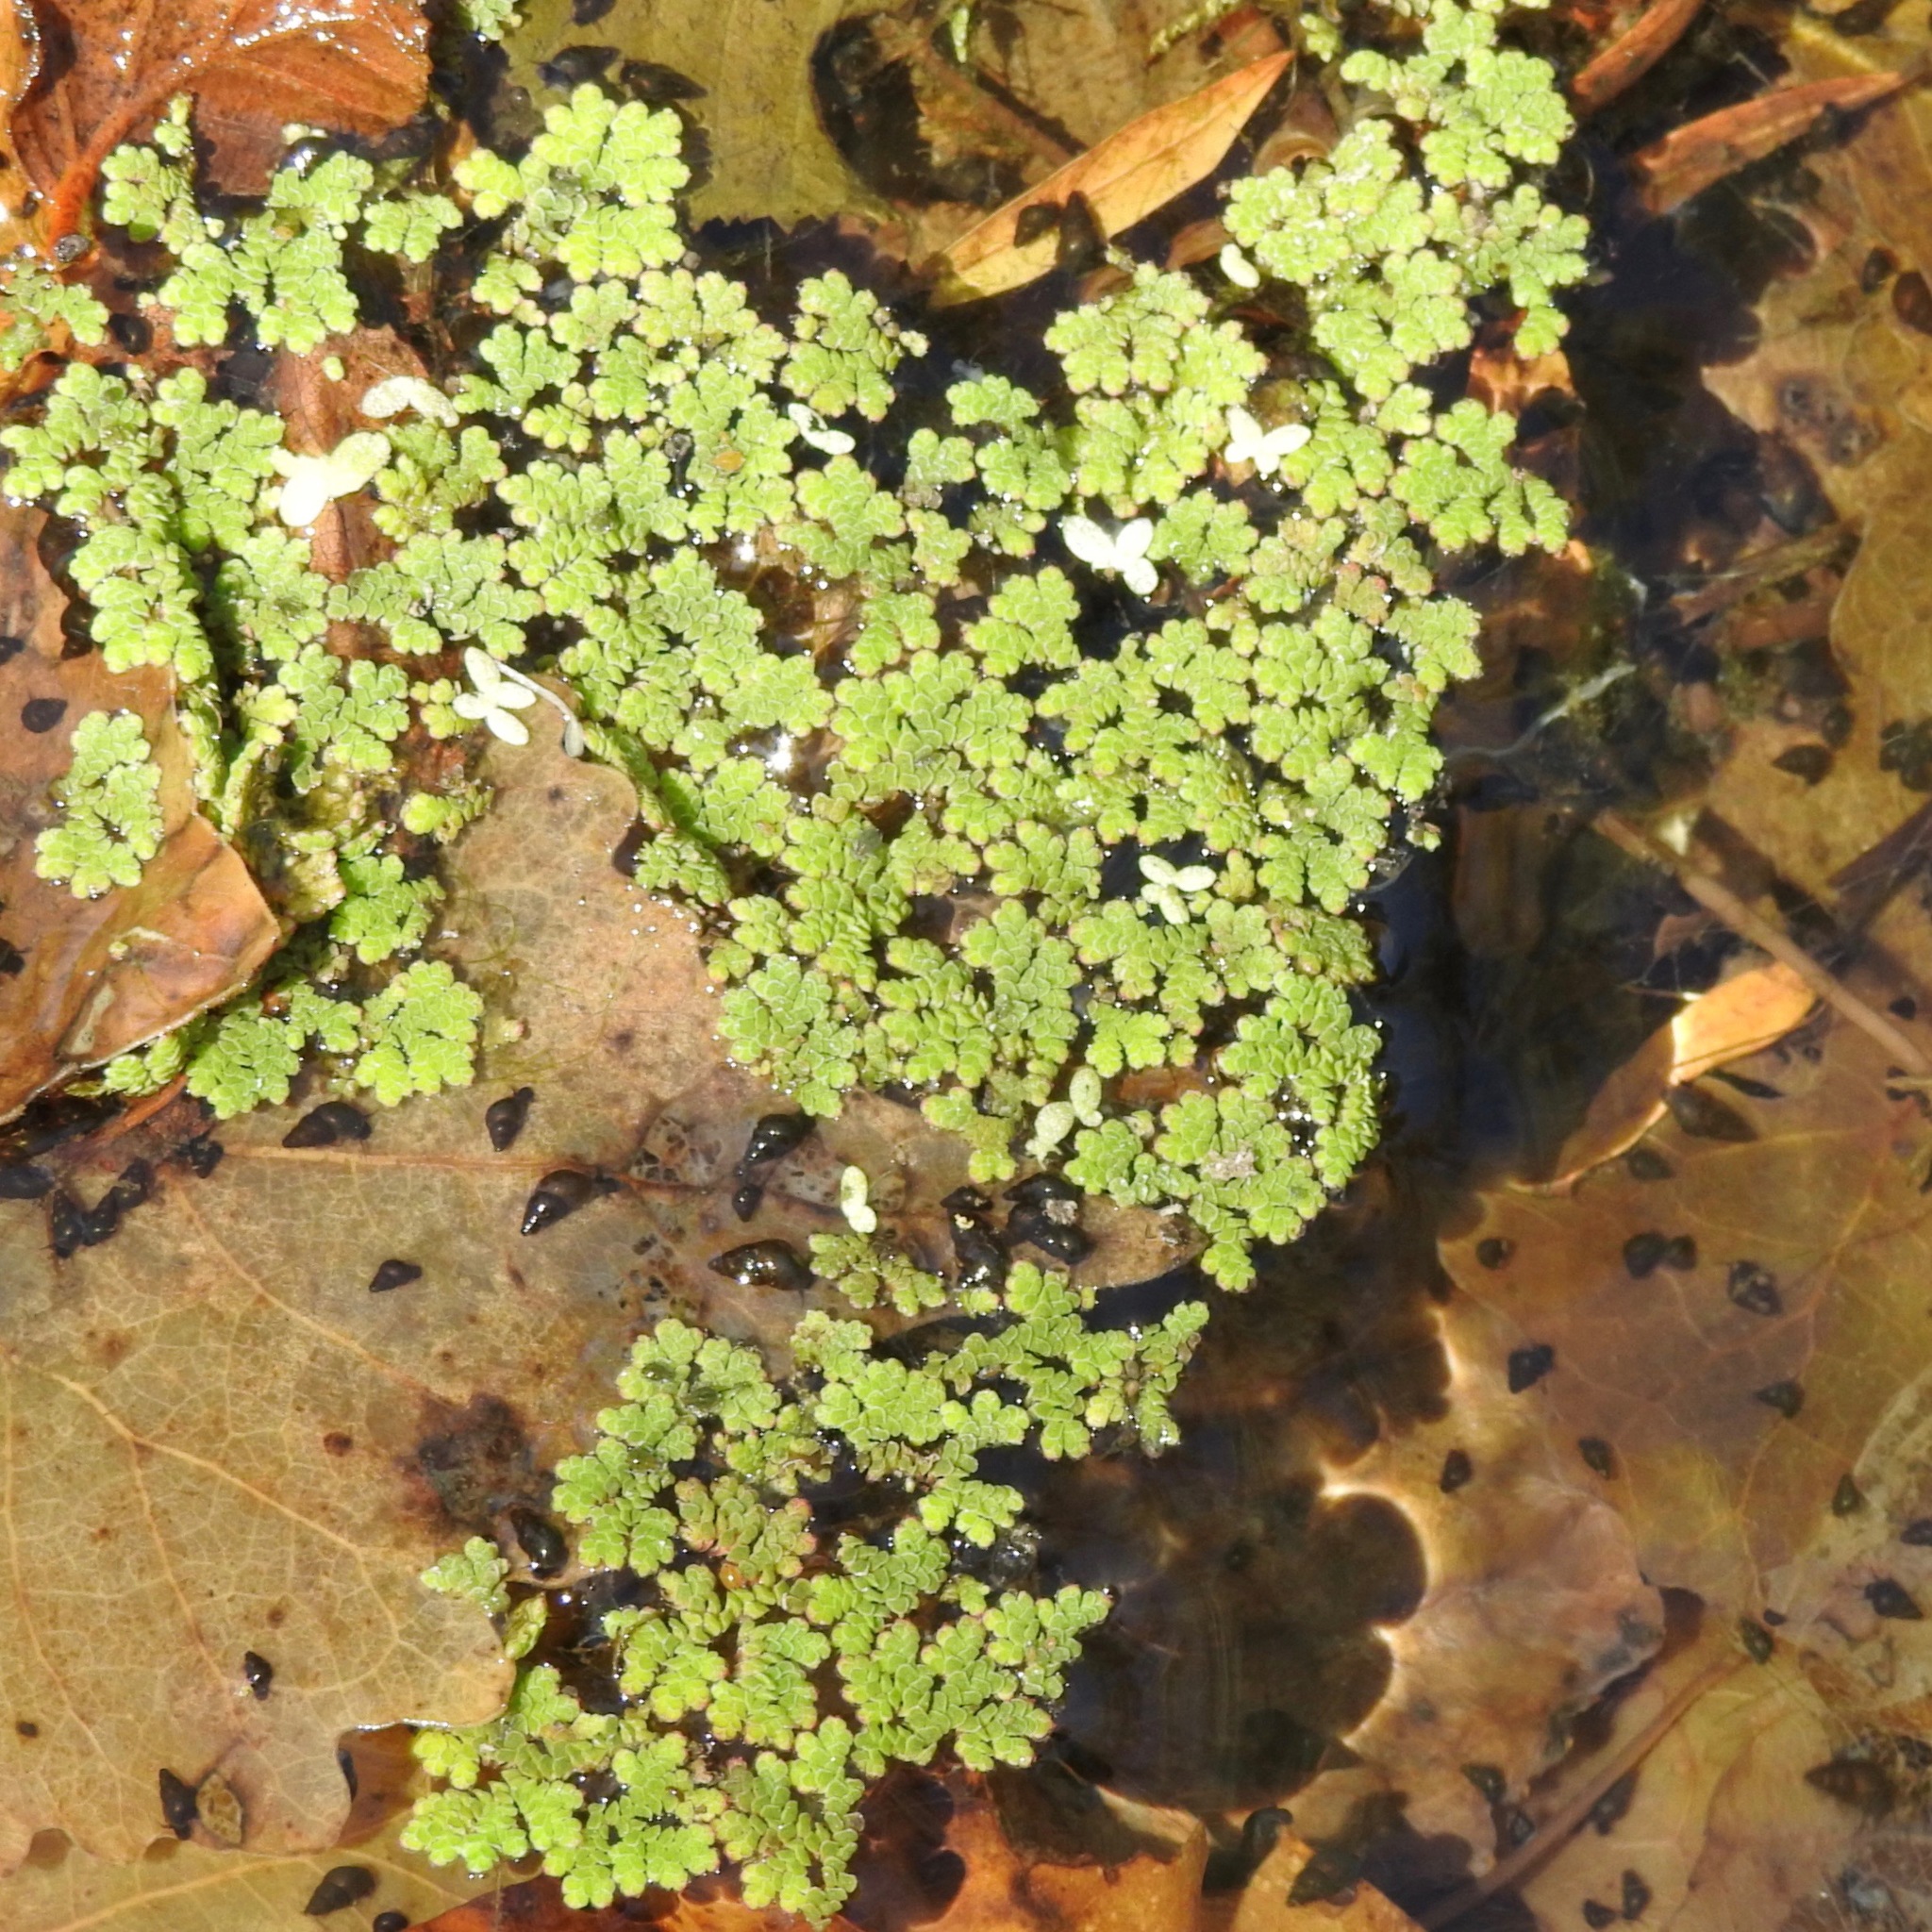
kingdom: Animalia
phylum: Mollusca
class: Gastropoda
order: Littorinimorpha
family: Tateidae
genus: Potamopyrgus
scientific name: Potamopyrgus antipodarum
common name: Jenkins' spire snail
